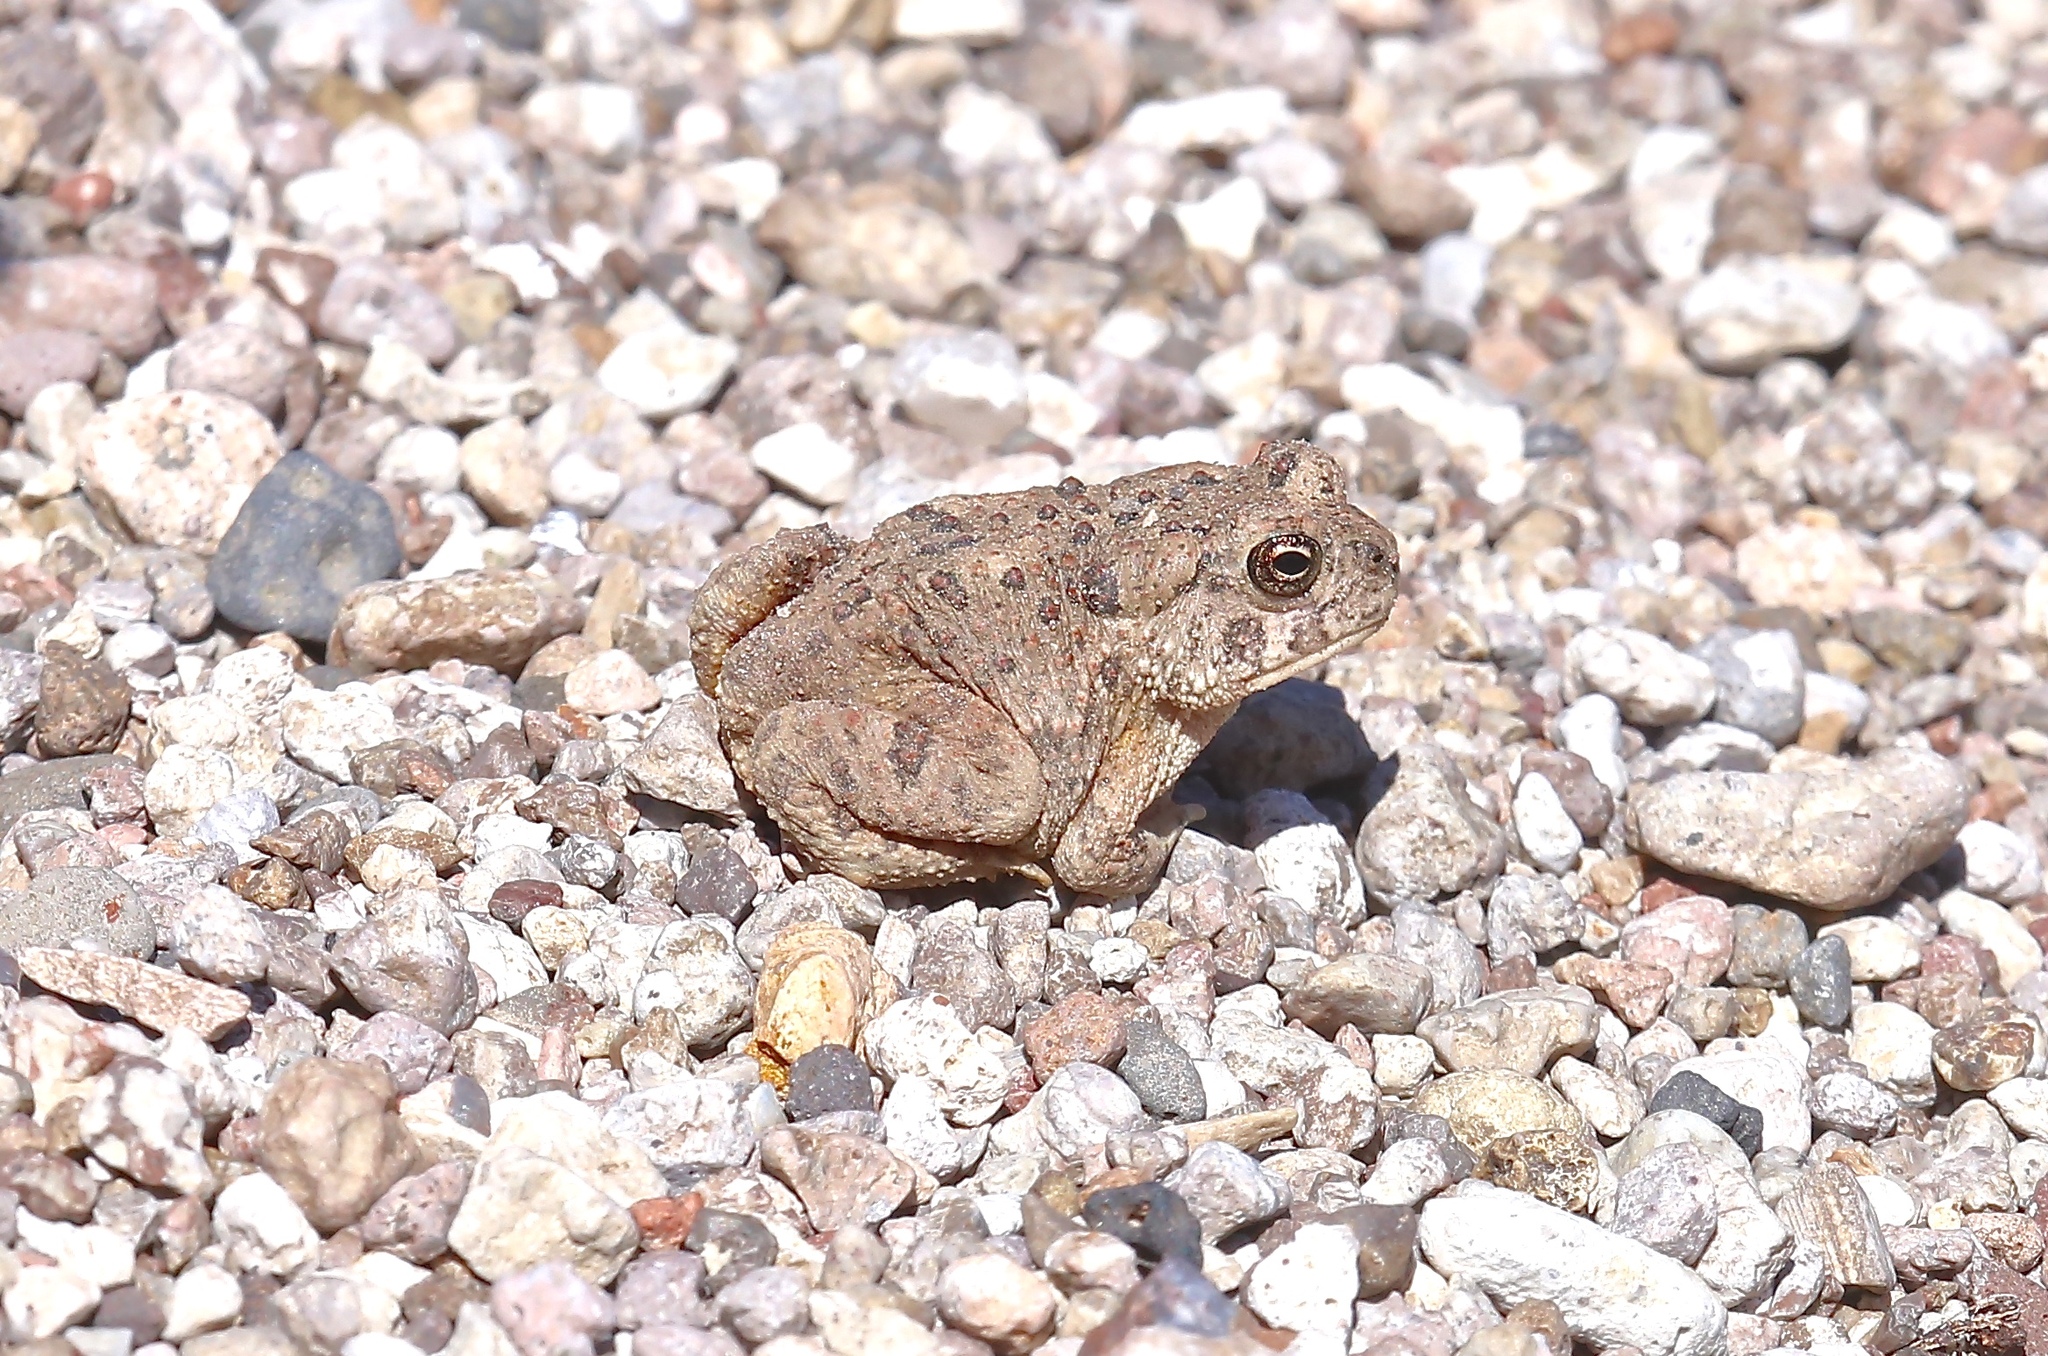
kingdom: Animalia
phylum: Chordata
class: Amphibia
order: Anura
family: Bufonidae
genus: Anaxyrus
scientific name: Anaxyrus microscaphus
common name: Arizona toad
